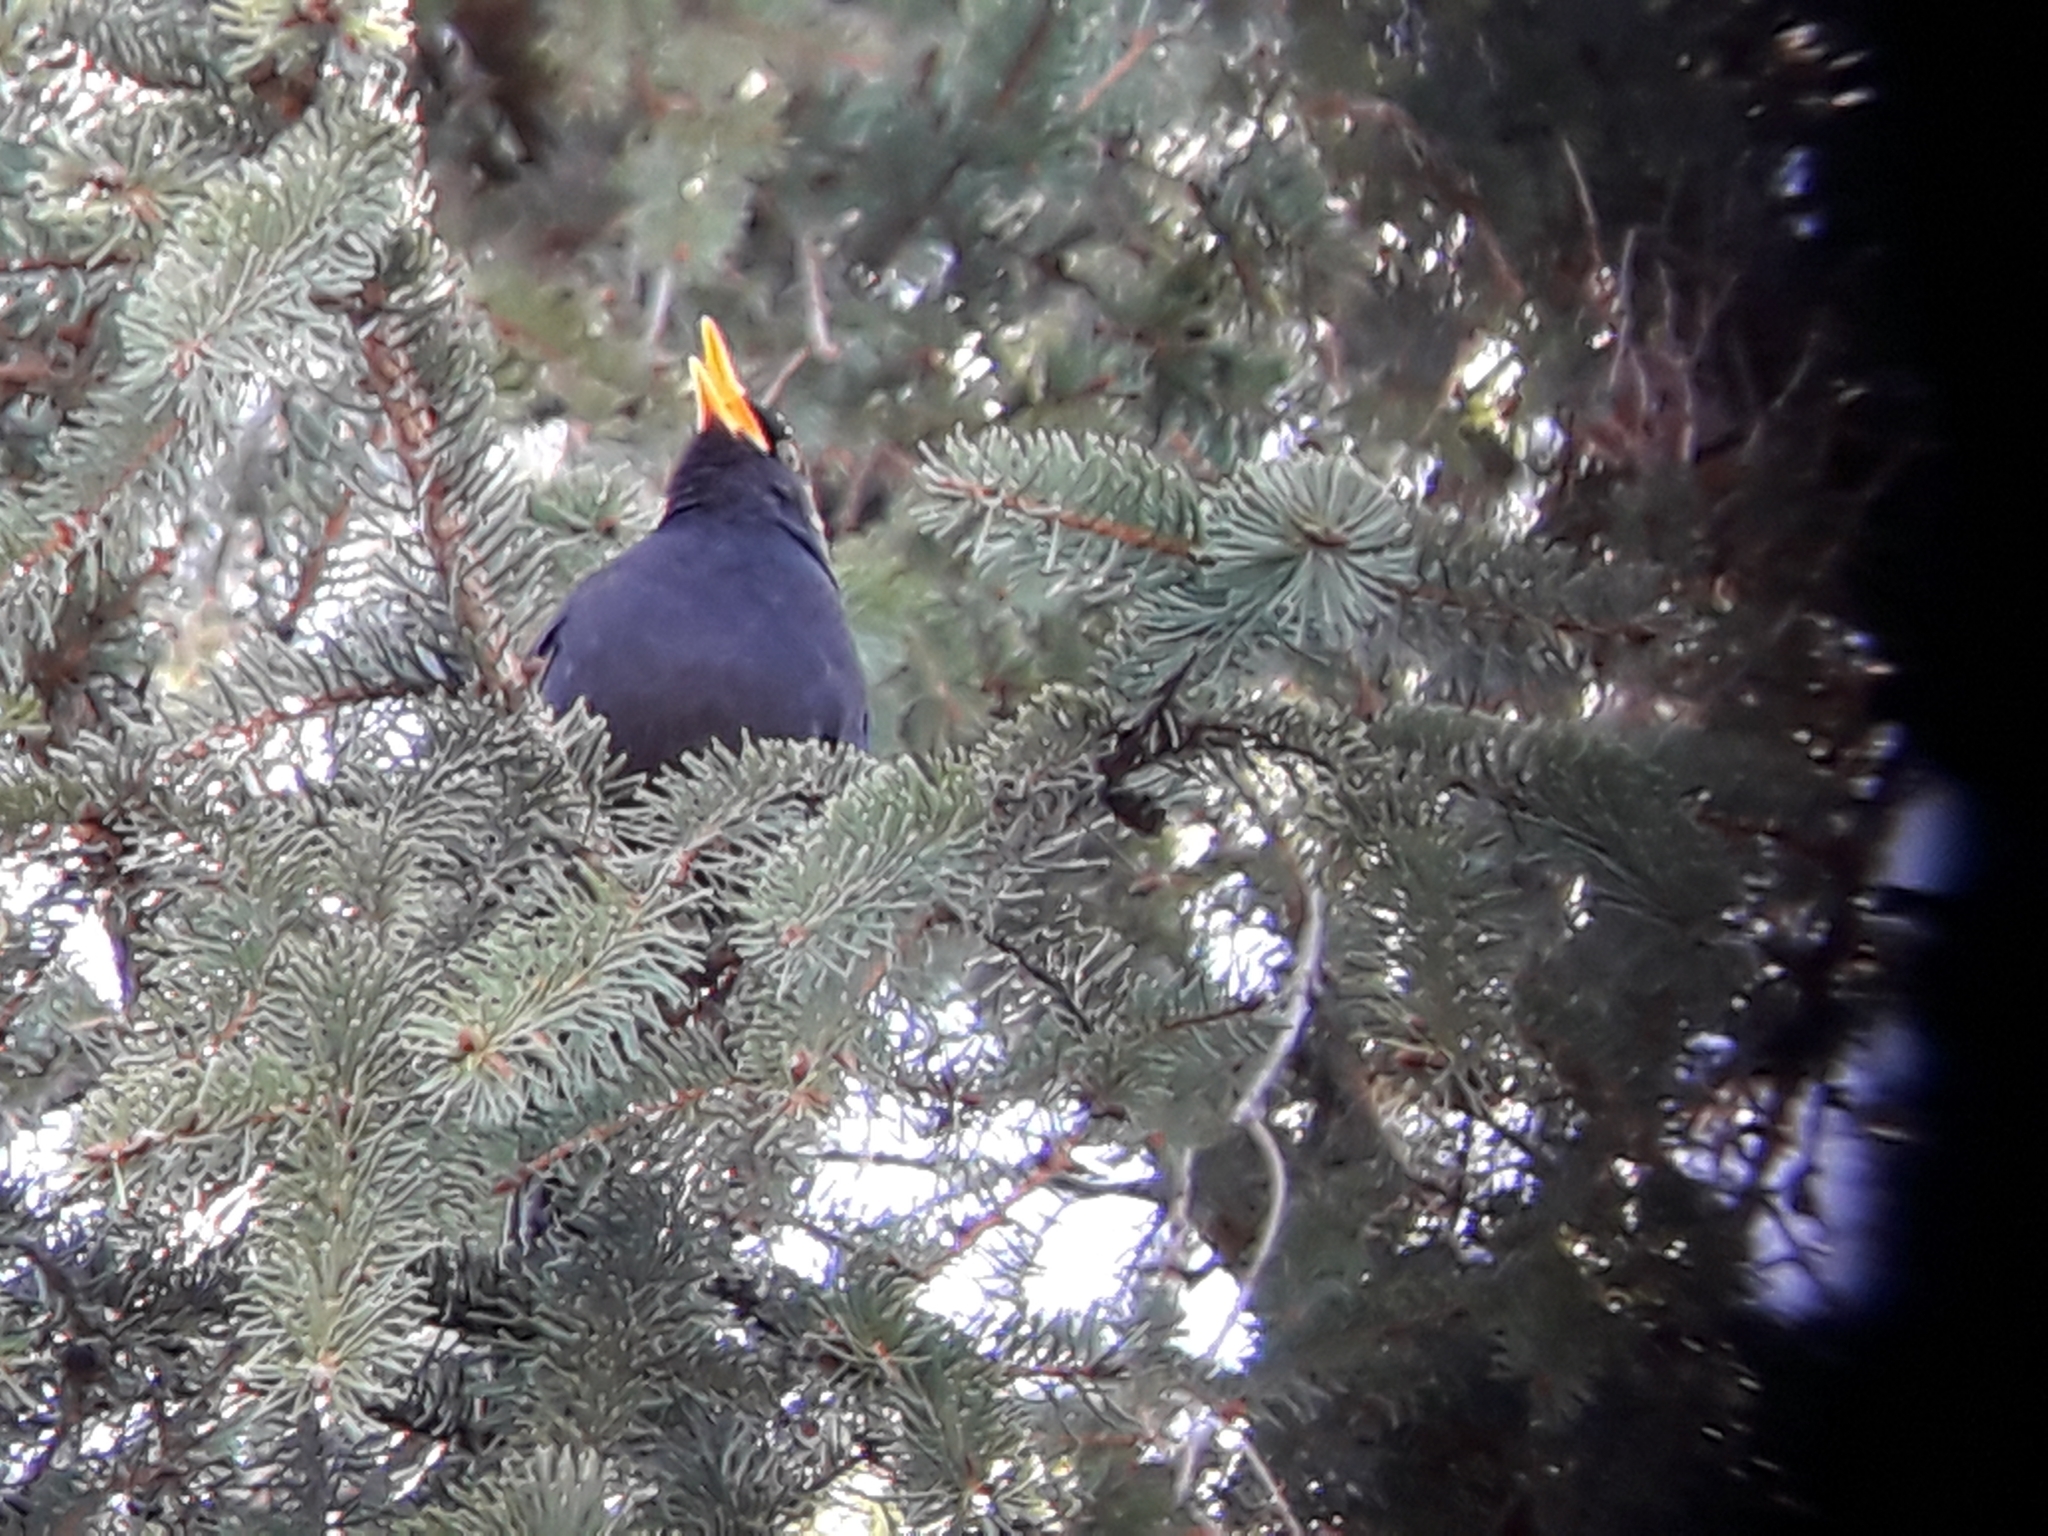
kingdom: Animalia
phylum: Chordata
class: Aves
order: Passeriformes
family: Turdidae
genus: Turdus
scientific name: Turdus merula
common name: Common blackbird
